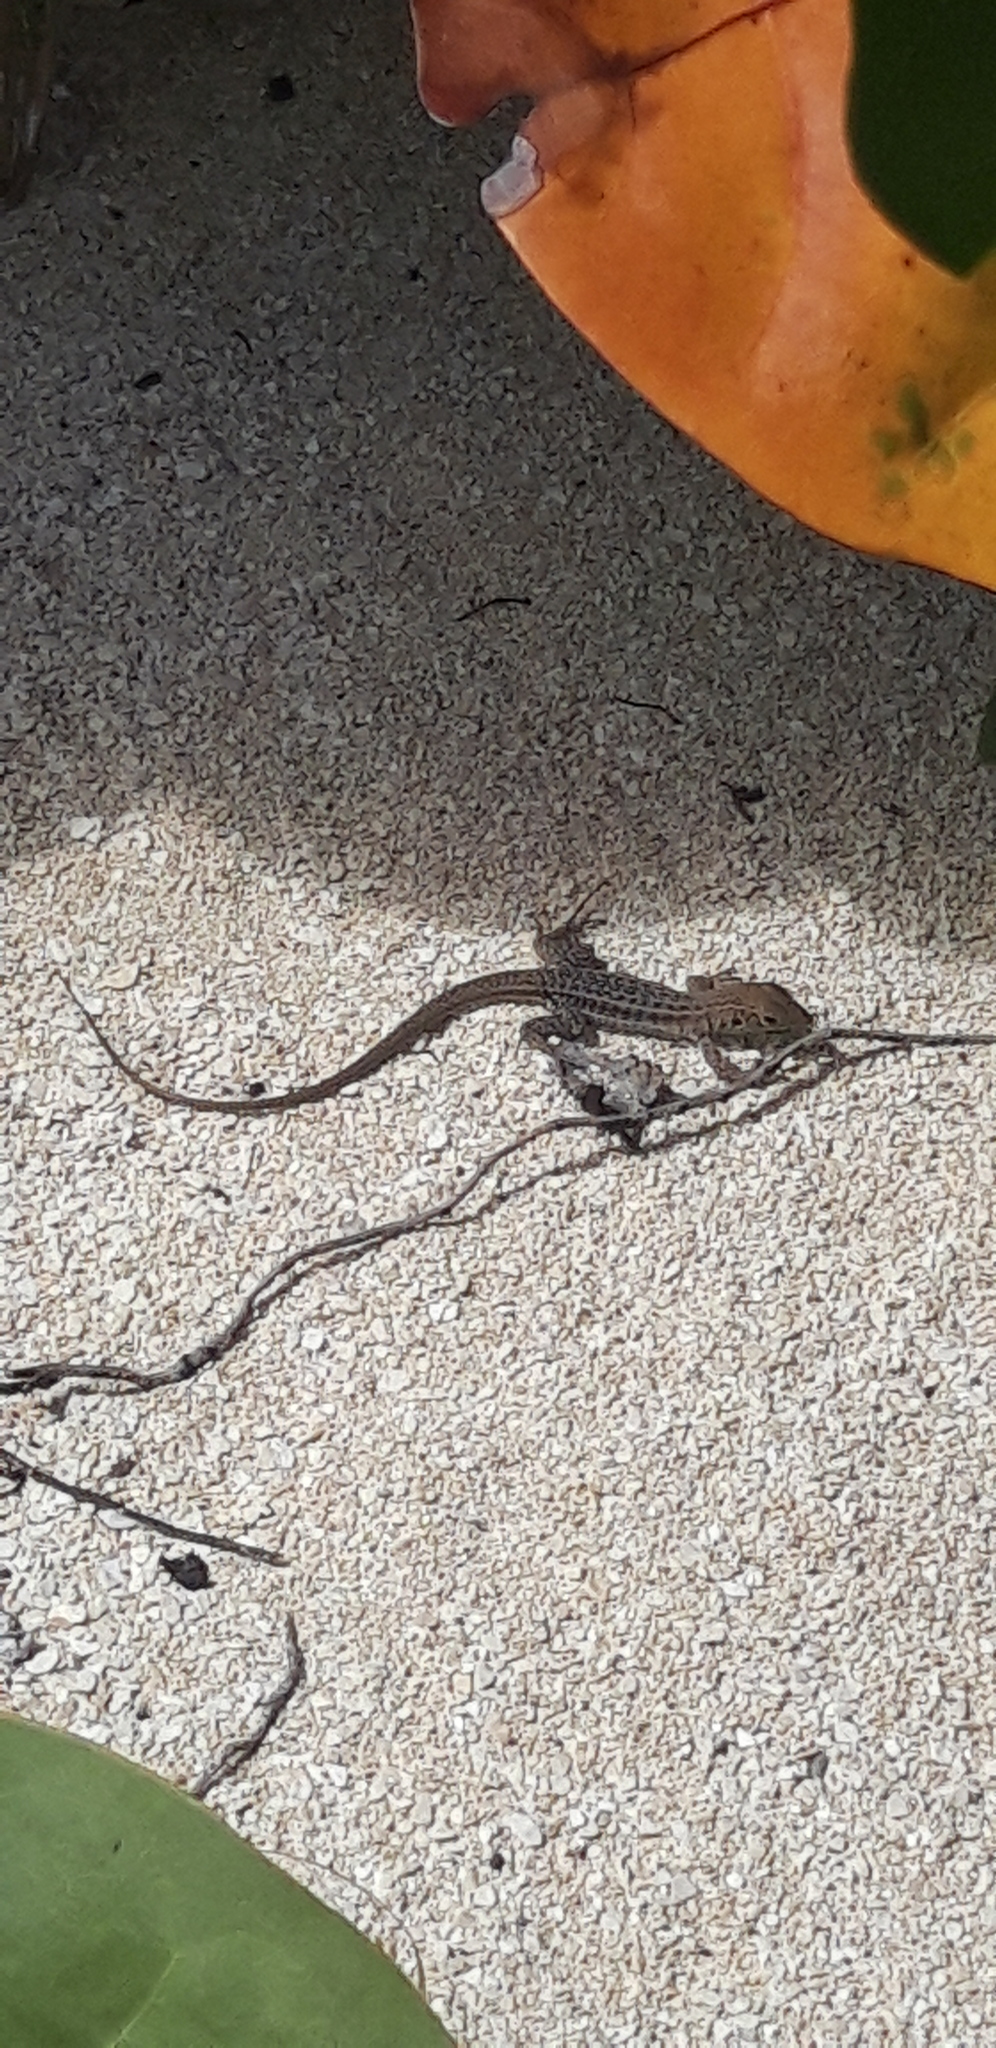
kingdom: Animalia
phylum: Chordata
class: Squamata
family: Teiidae
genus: Pholidoscelis
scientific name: Pholidoscelis plei
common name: Anguilla bank ameiva
